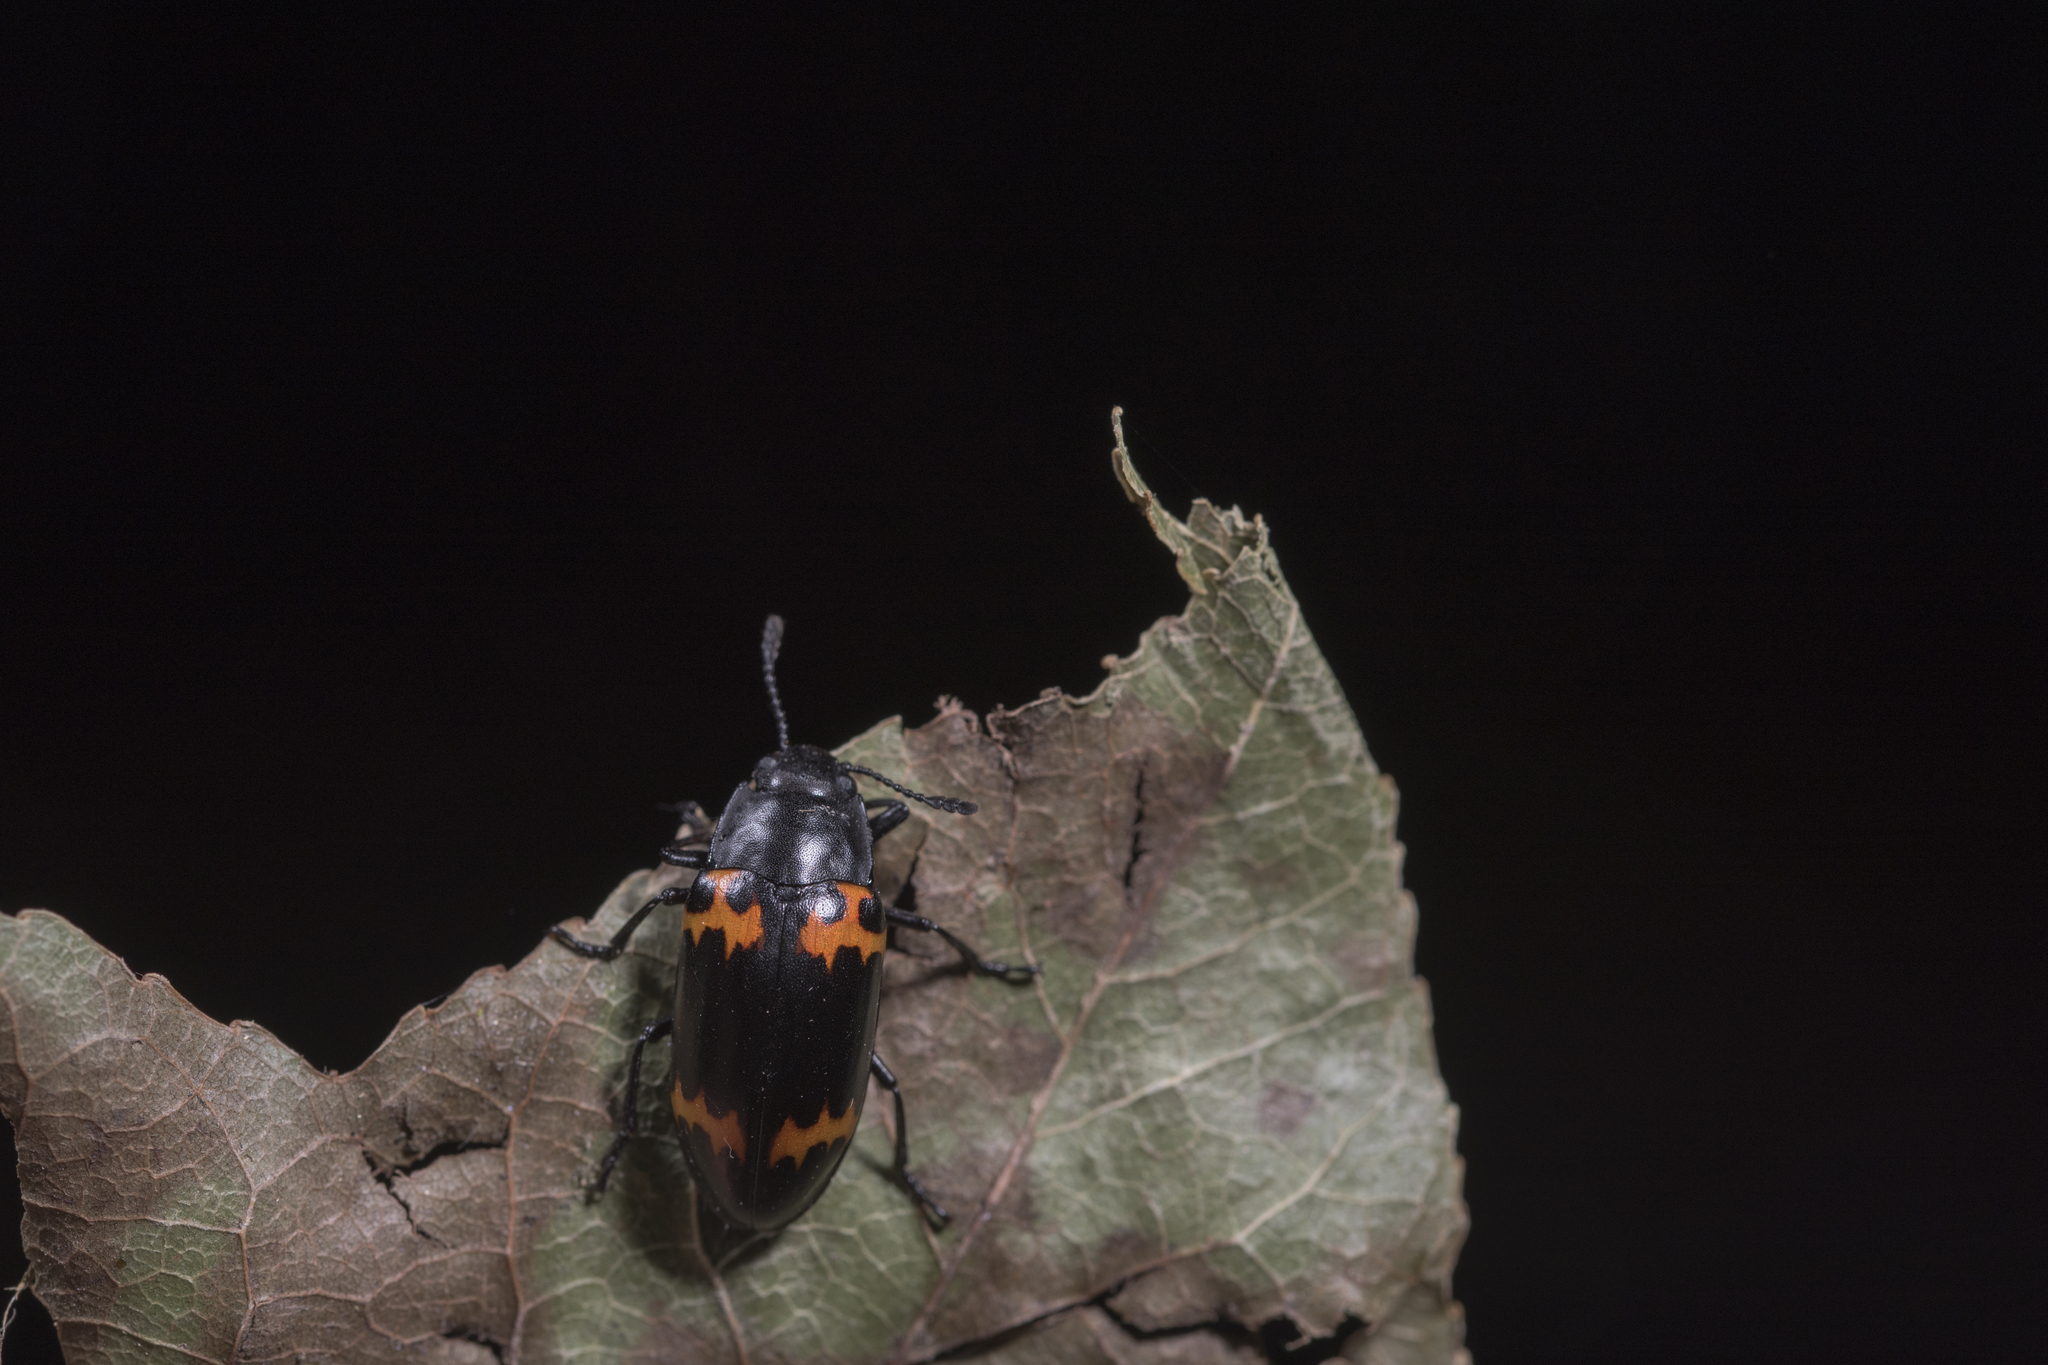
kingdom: Animalia
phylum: Arthropoda
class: Insecta
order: Coleoptera
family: Erotylidae
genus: Episcapha
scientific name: Episcapha morawitzi
